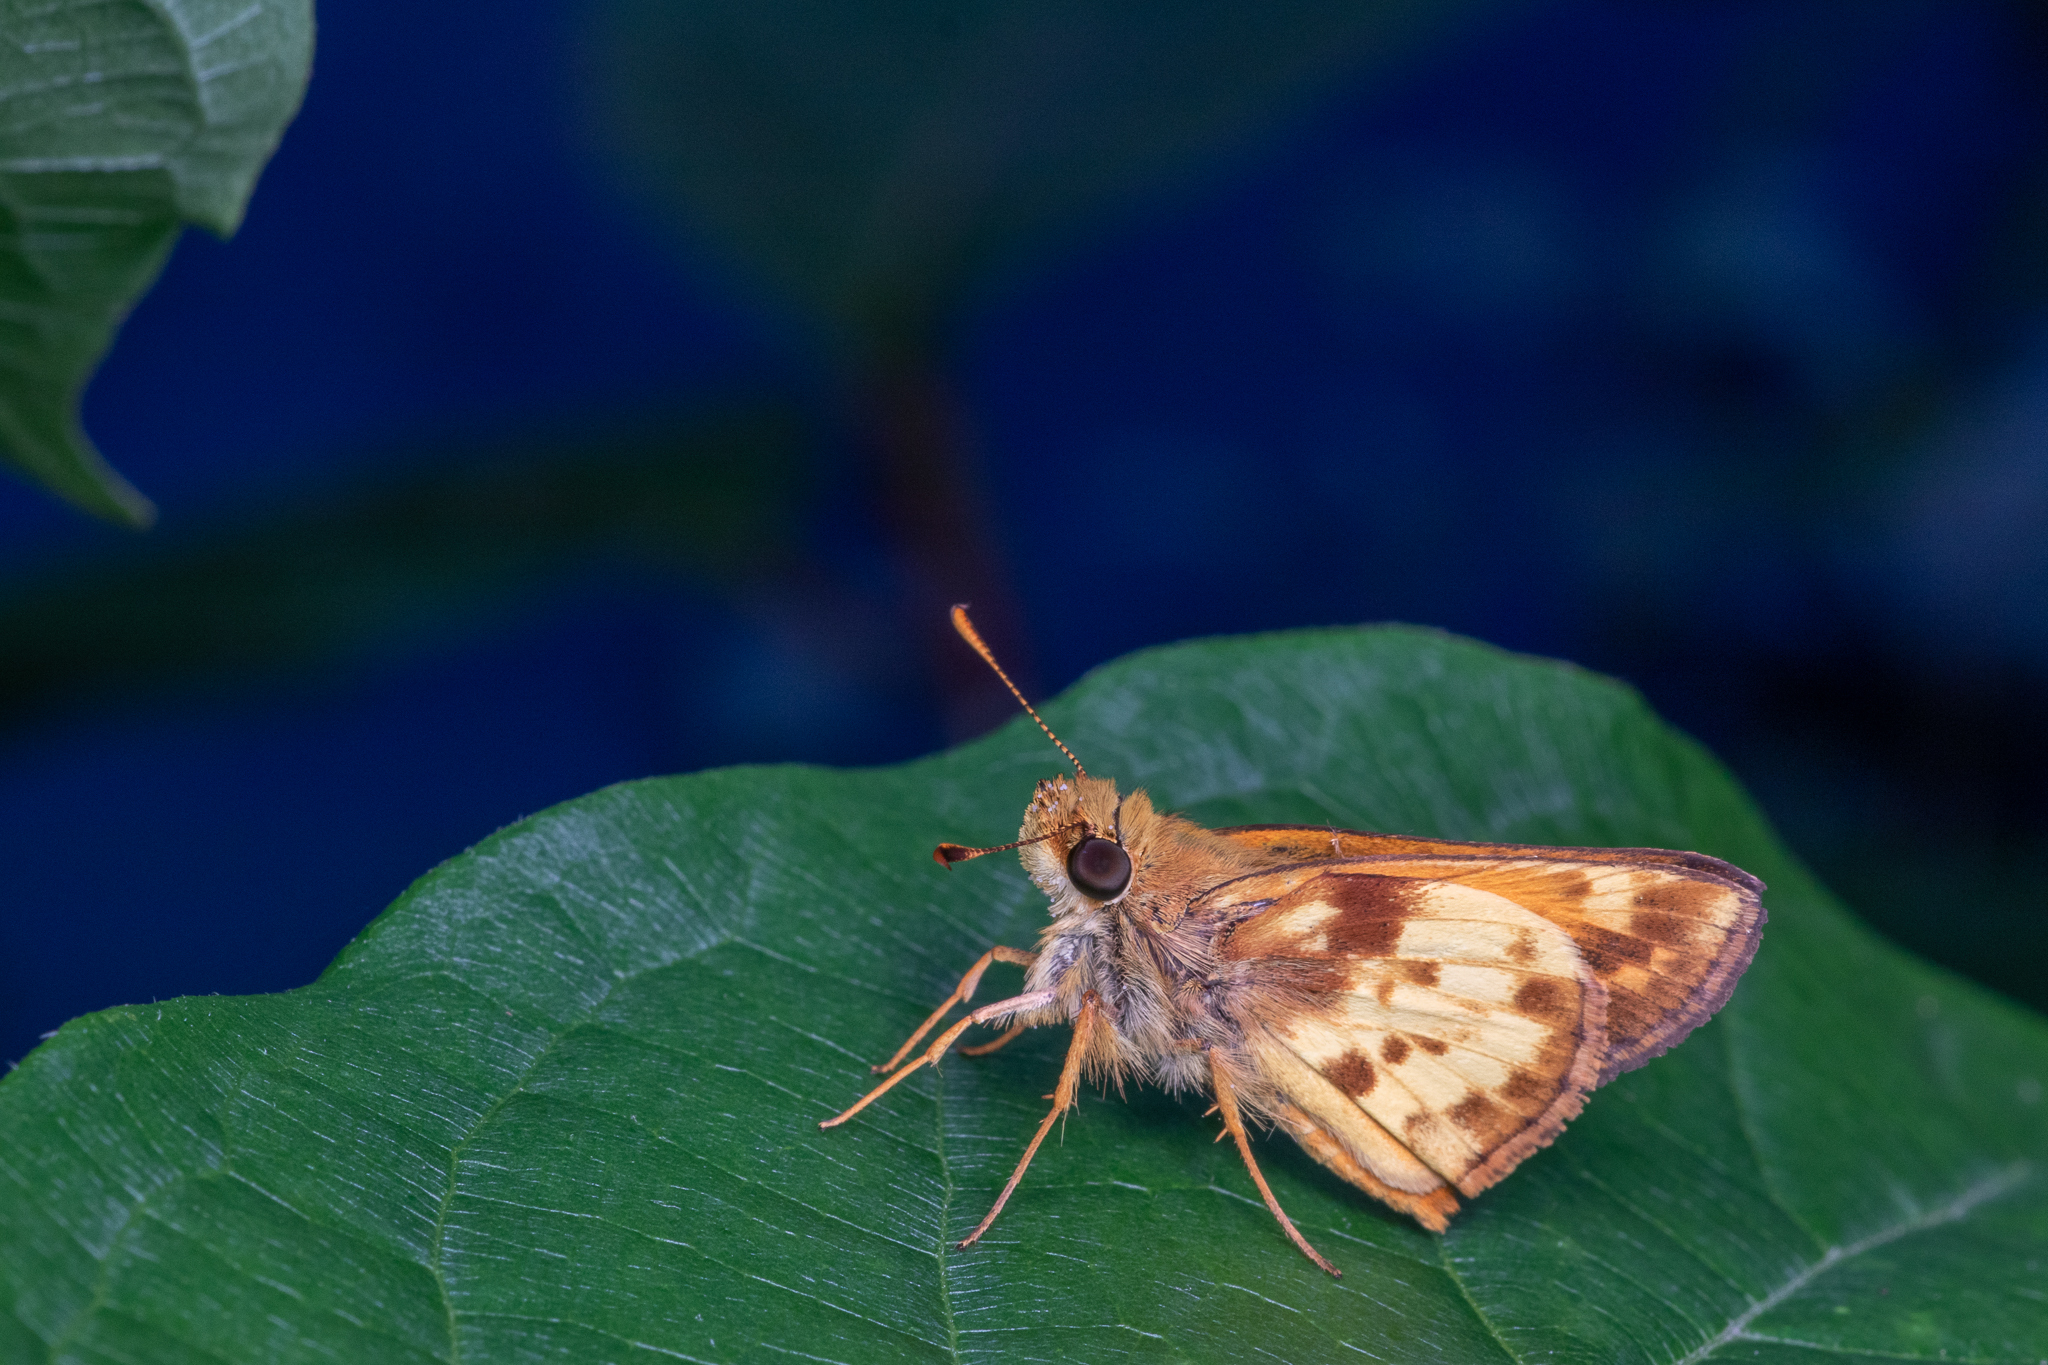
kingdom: Animalia
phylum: Arthropoda
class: Insecta
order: Lepidoptera
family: Hesperiidae
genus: Lon
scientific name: Lon zabulon
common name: Zabulon skipper
